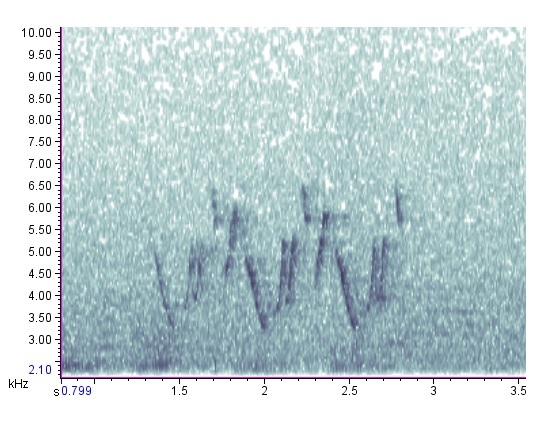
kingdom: Animalia
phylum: Chordata
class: Aves
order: Passeriformes
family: Parulidae
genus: Geothlypis
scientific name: Geothlypis trichas
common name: Common yellowthroat
